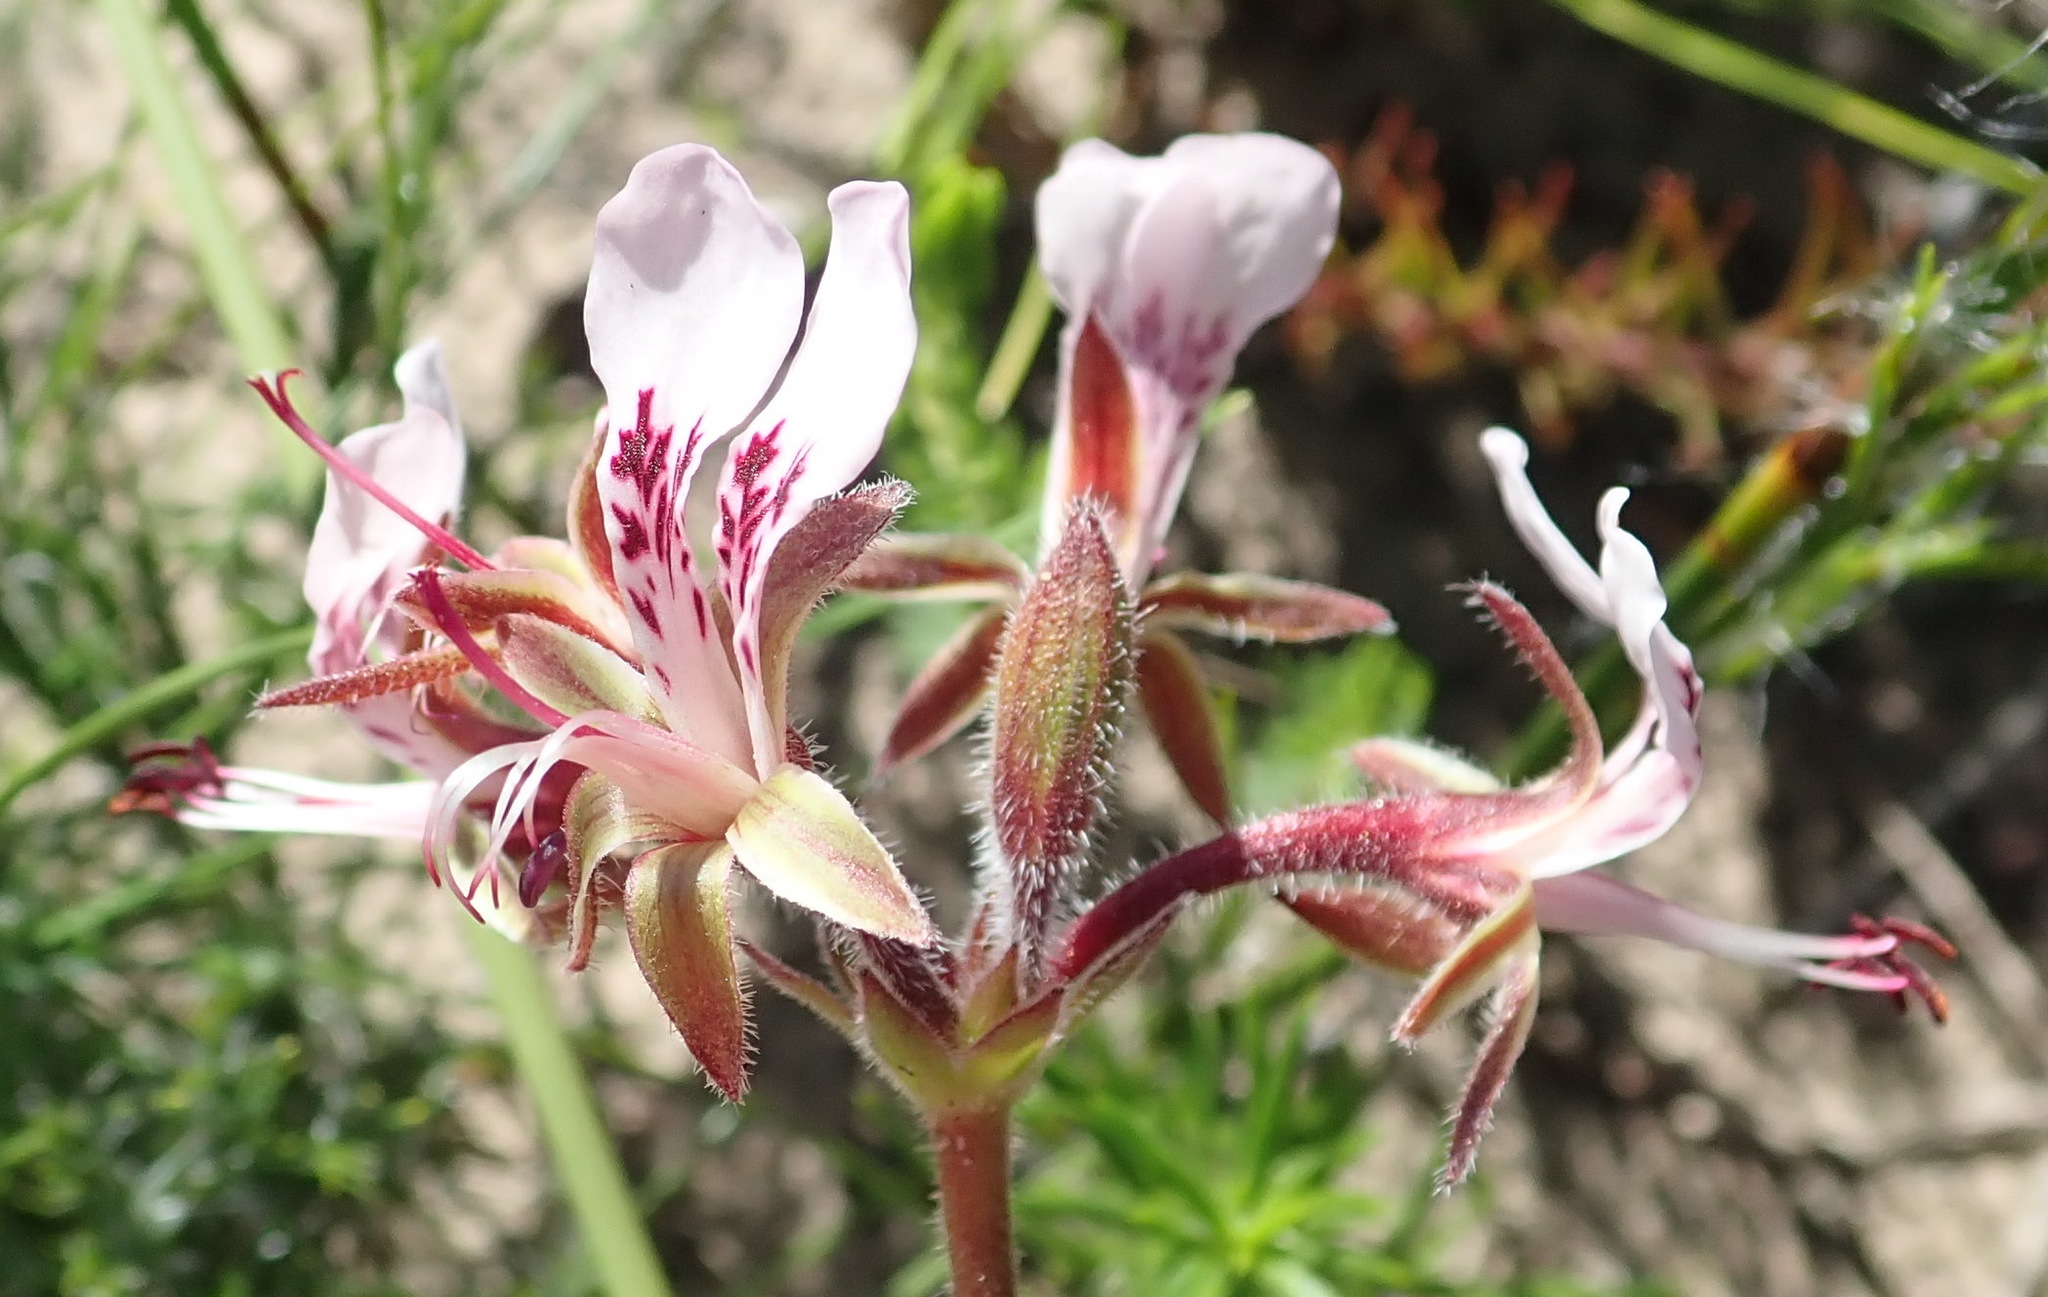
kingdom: Plantae
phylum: Tracheophyta
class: Magnoliopsida
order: Geraniales
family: Geraniaceae
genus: Pelargonium
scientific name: Pelargonium dipetalum
